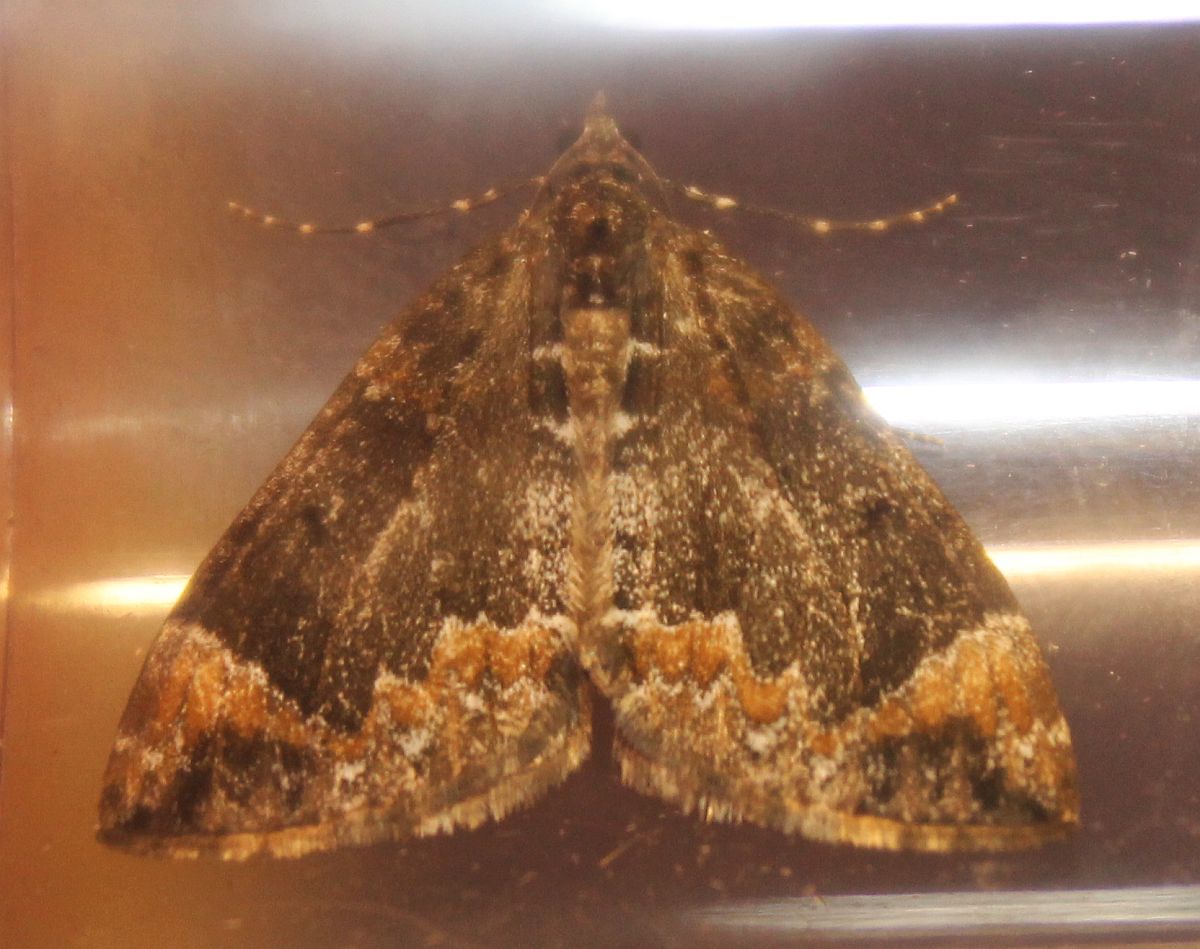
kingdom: Animalia
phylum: Arthropoda
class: Insecta
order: Lepidoptera
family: Geometridae
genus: Dysstroma
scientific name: Dysstroma truncata
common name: Common marbled carpet
